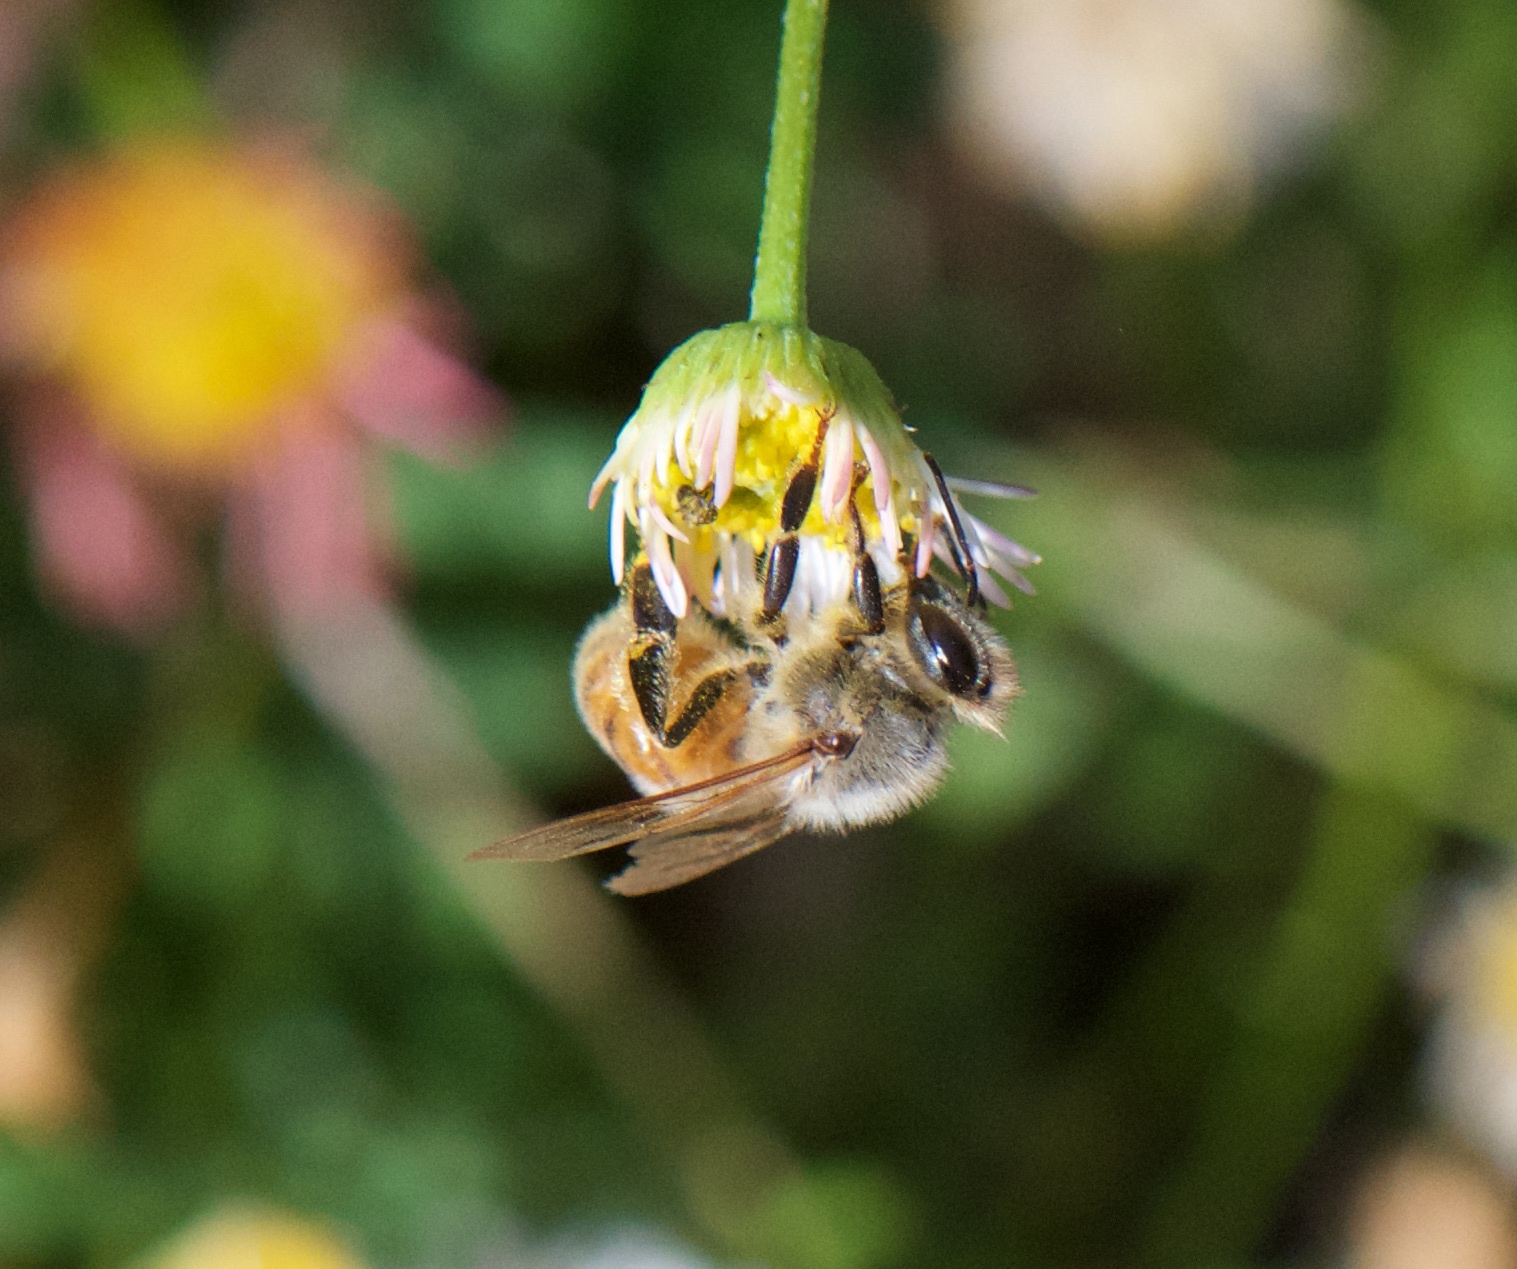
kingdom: Animalia
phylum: Arthropoda
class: Insecta
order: Hymenoptera
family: Apidae
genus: Apis
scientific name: Apis mellifera
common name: Honey bee
